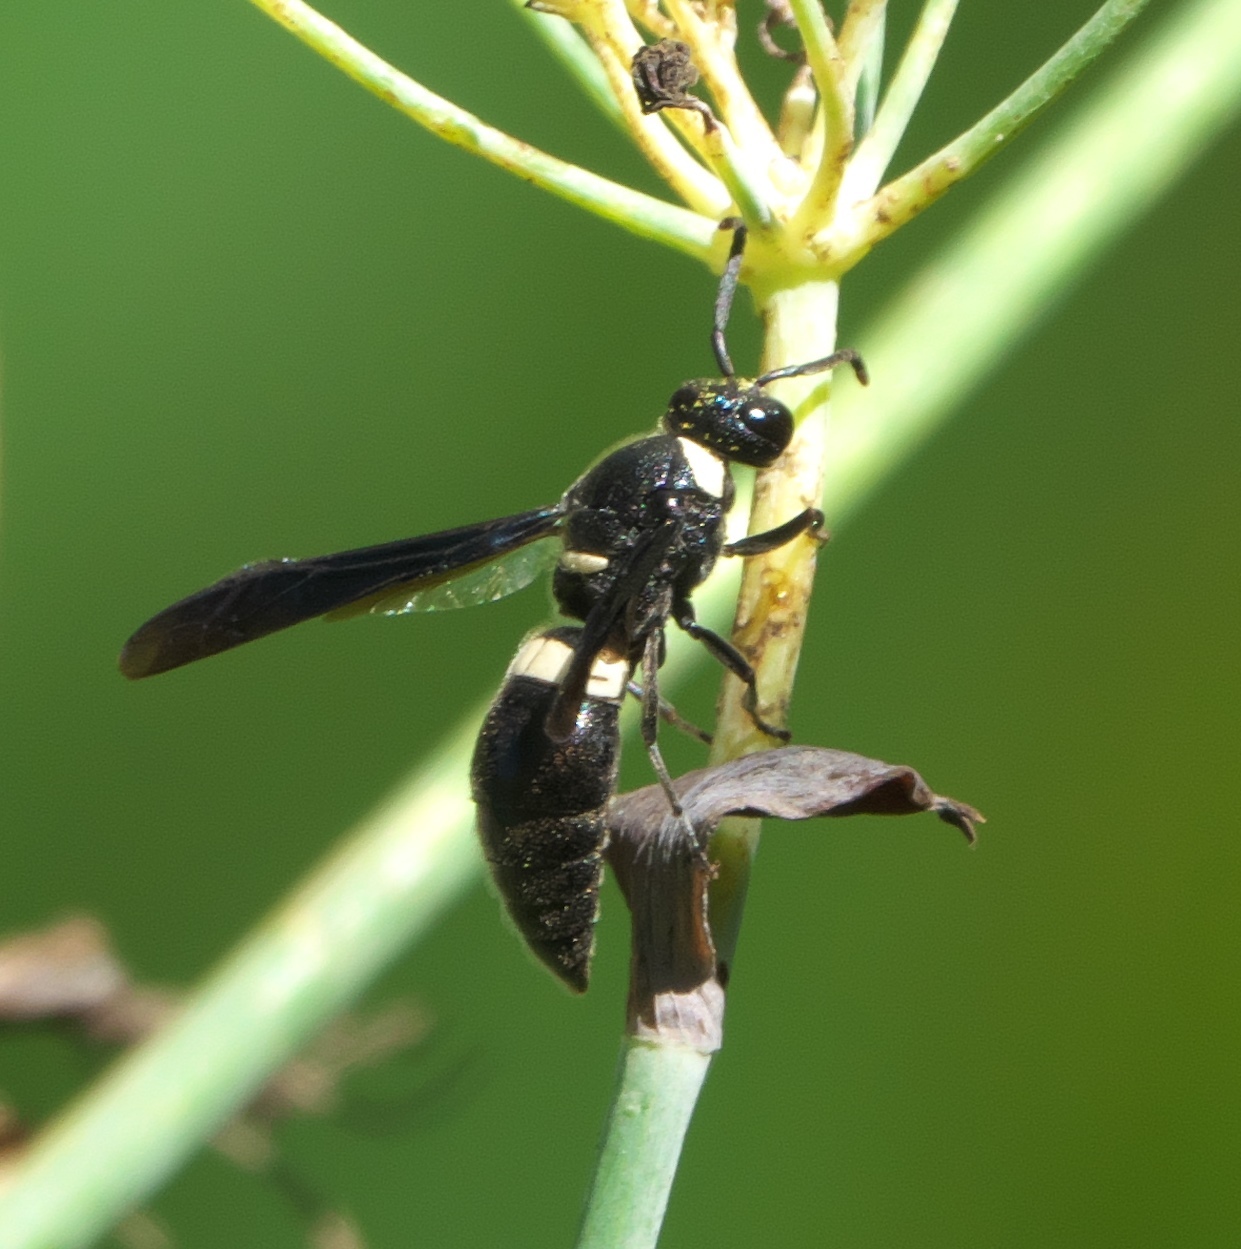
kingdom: Animalia
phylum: Arthropoda
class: Insecta
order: Hymenoptera
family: Eumenidae
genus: Monobia
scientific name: Monobia quadridens
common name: Four-toothed mason wasp
